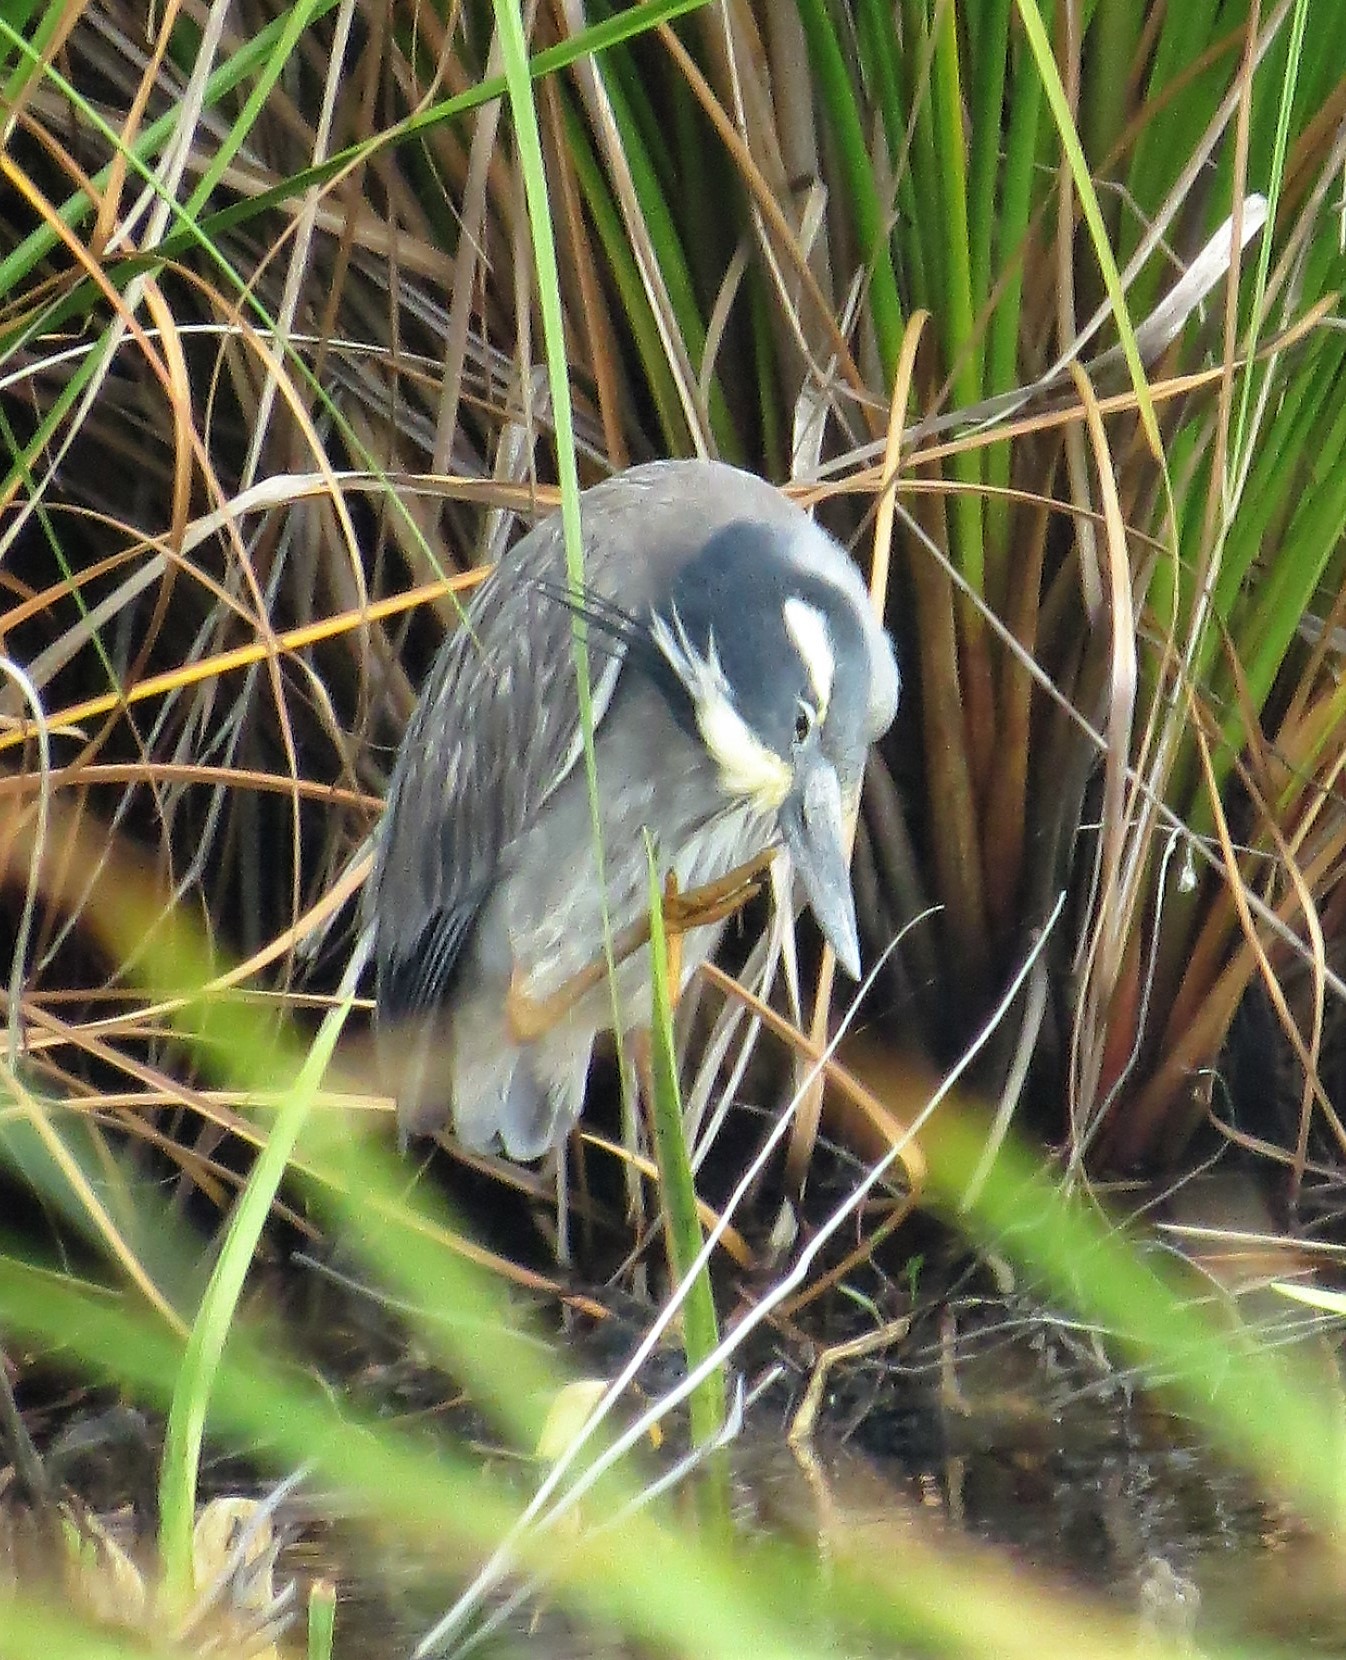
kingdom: Animalia
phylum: Chordata
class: Aves
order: Pelecaniformes
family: Ardeidae
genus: Nyctanassa
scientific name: Nyctanassa violacea
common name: Yellow-crowned night heron
